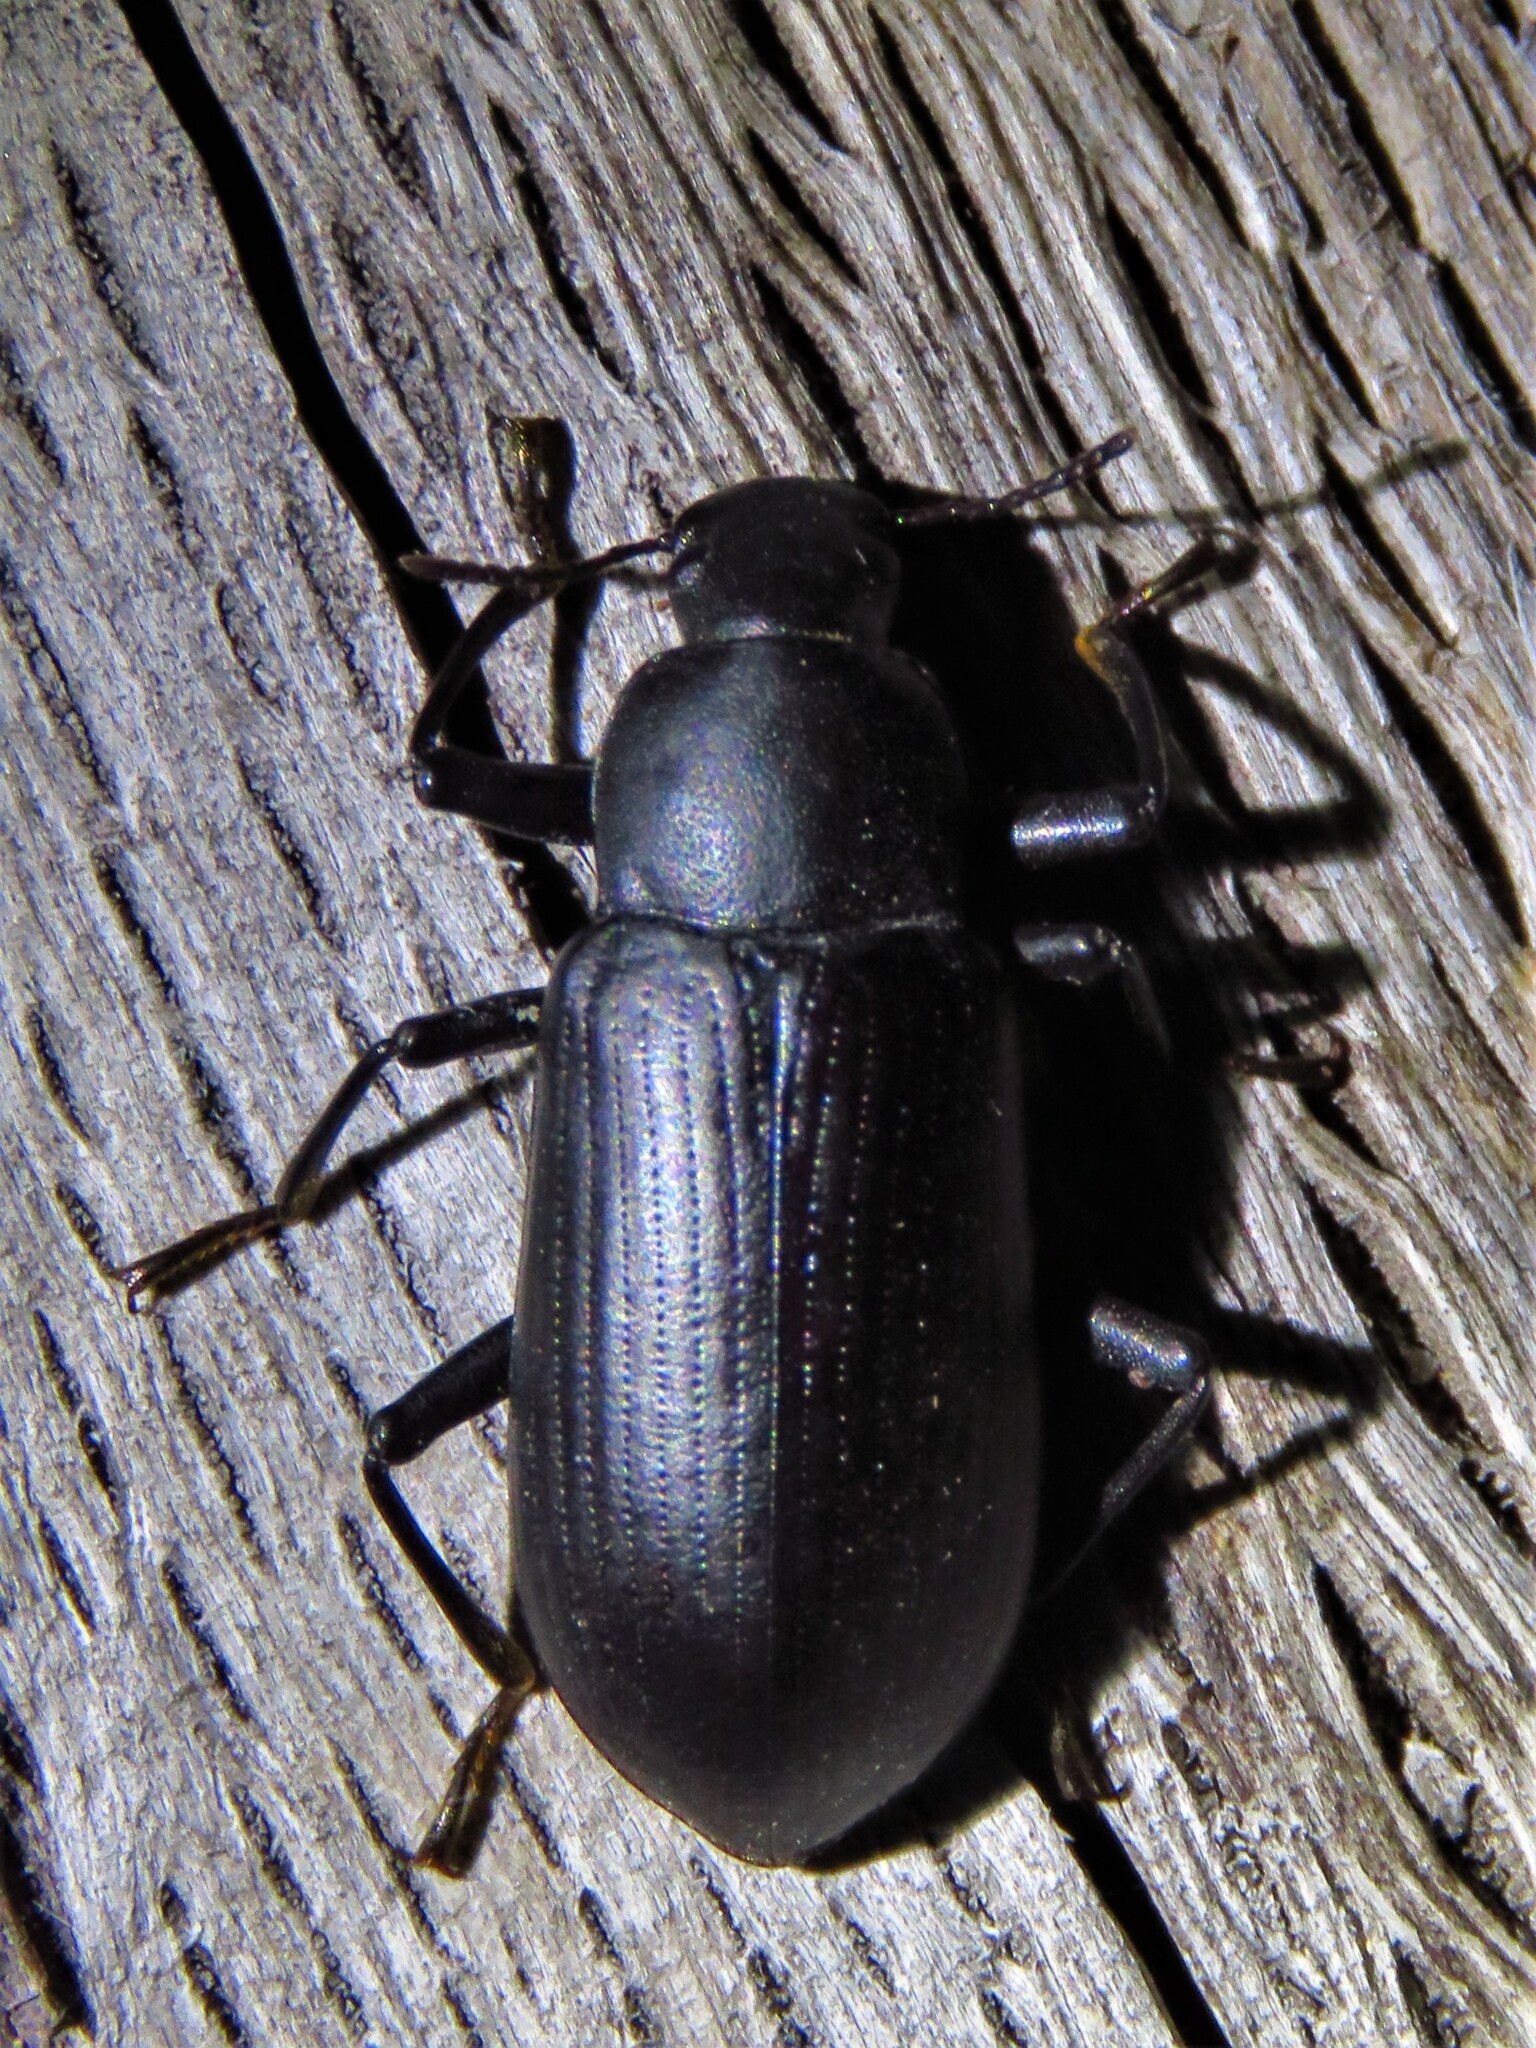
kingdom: Animalia
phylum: Arthropoda
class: Insecta
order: Coleoptera
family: Tenebrionidae
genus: Alobates
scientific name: Alobates
